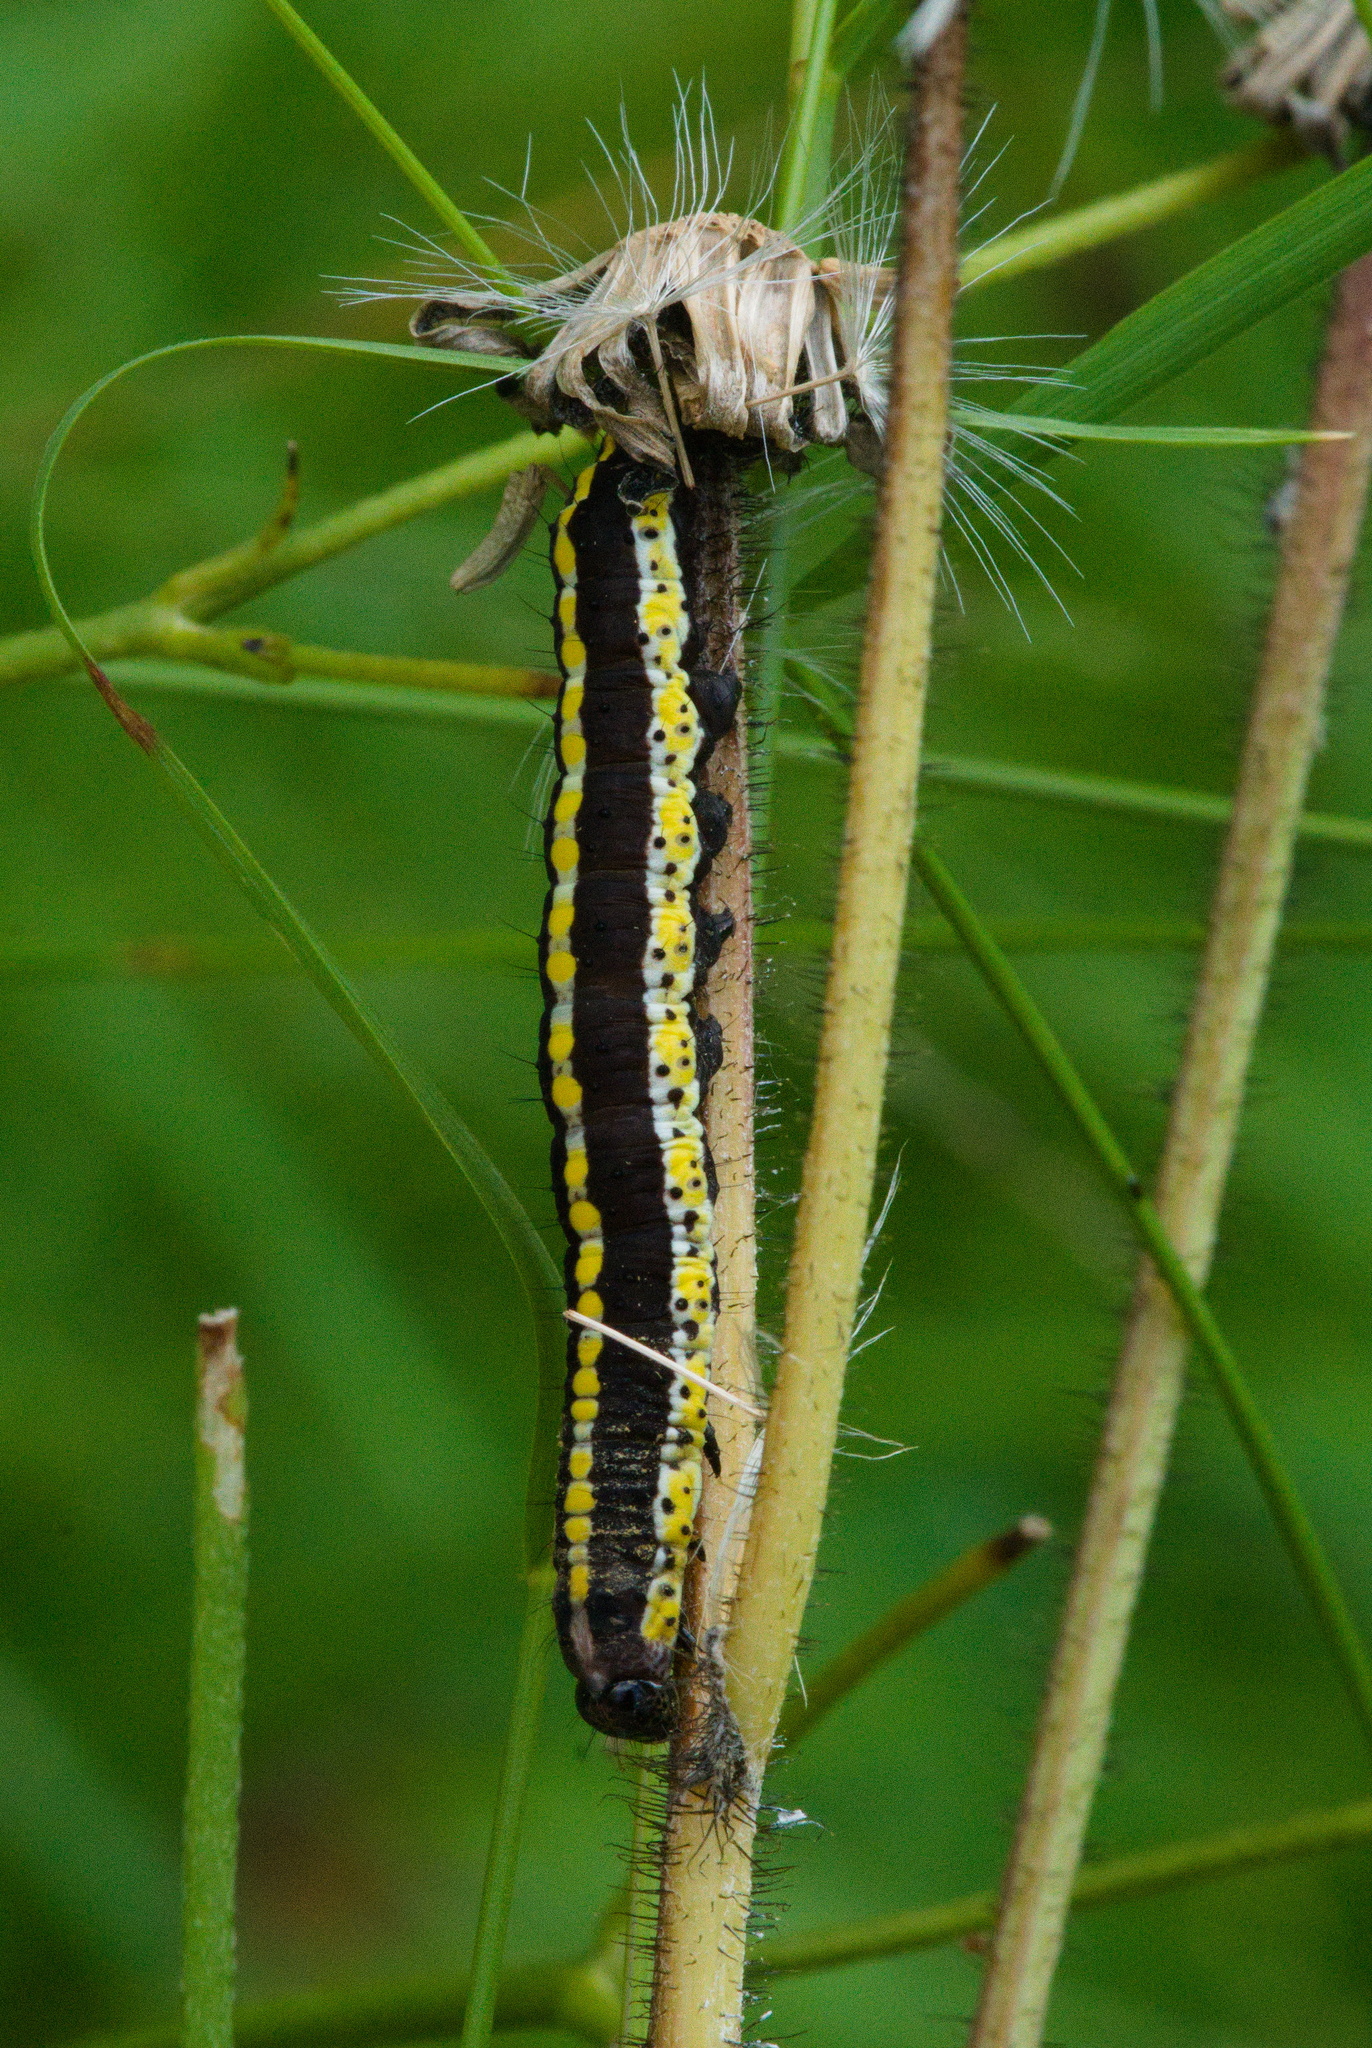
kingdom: Animalia
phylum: Arthropoda
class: Insecta
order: Lepidoptera
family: Noctuidae
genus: Cucullia
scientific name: Cucullia lucifuga
